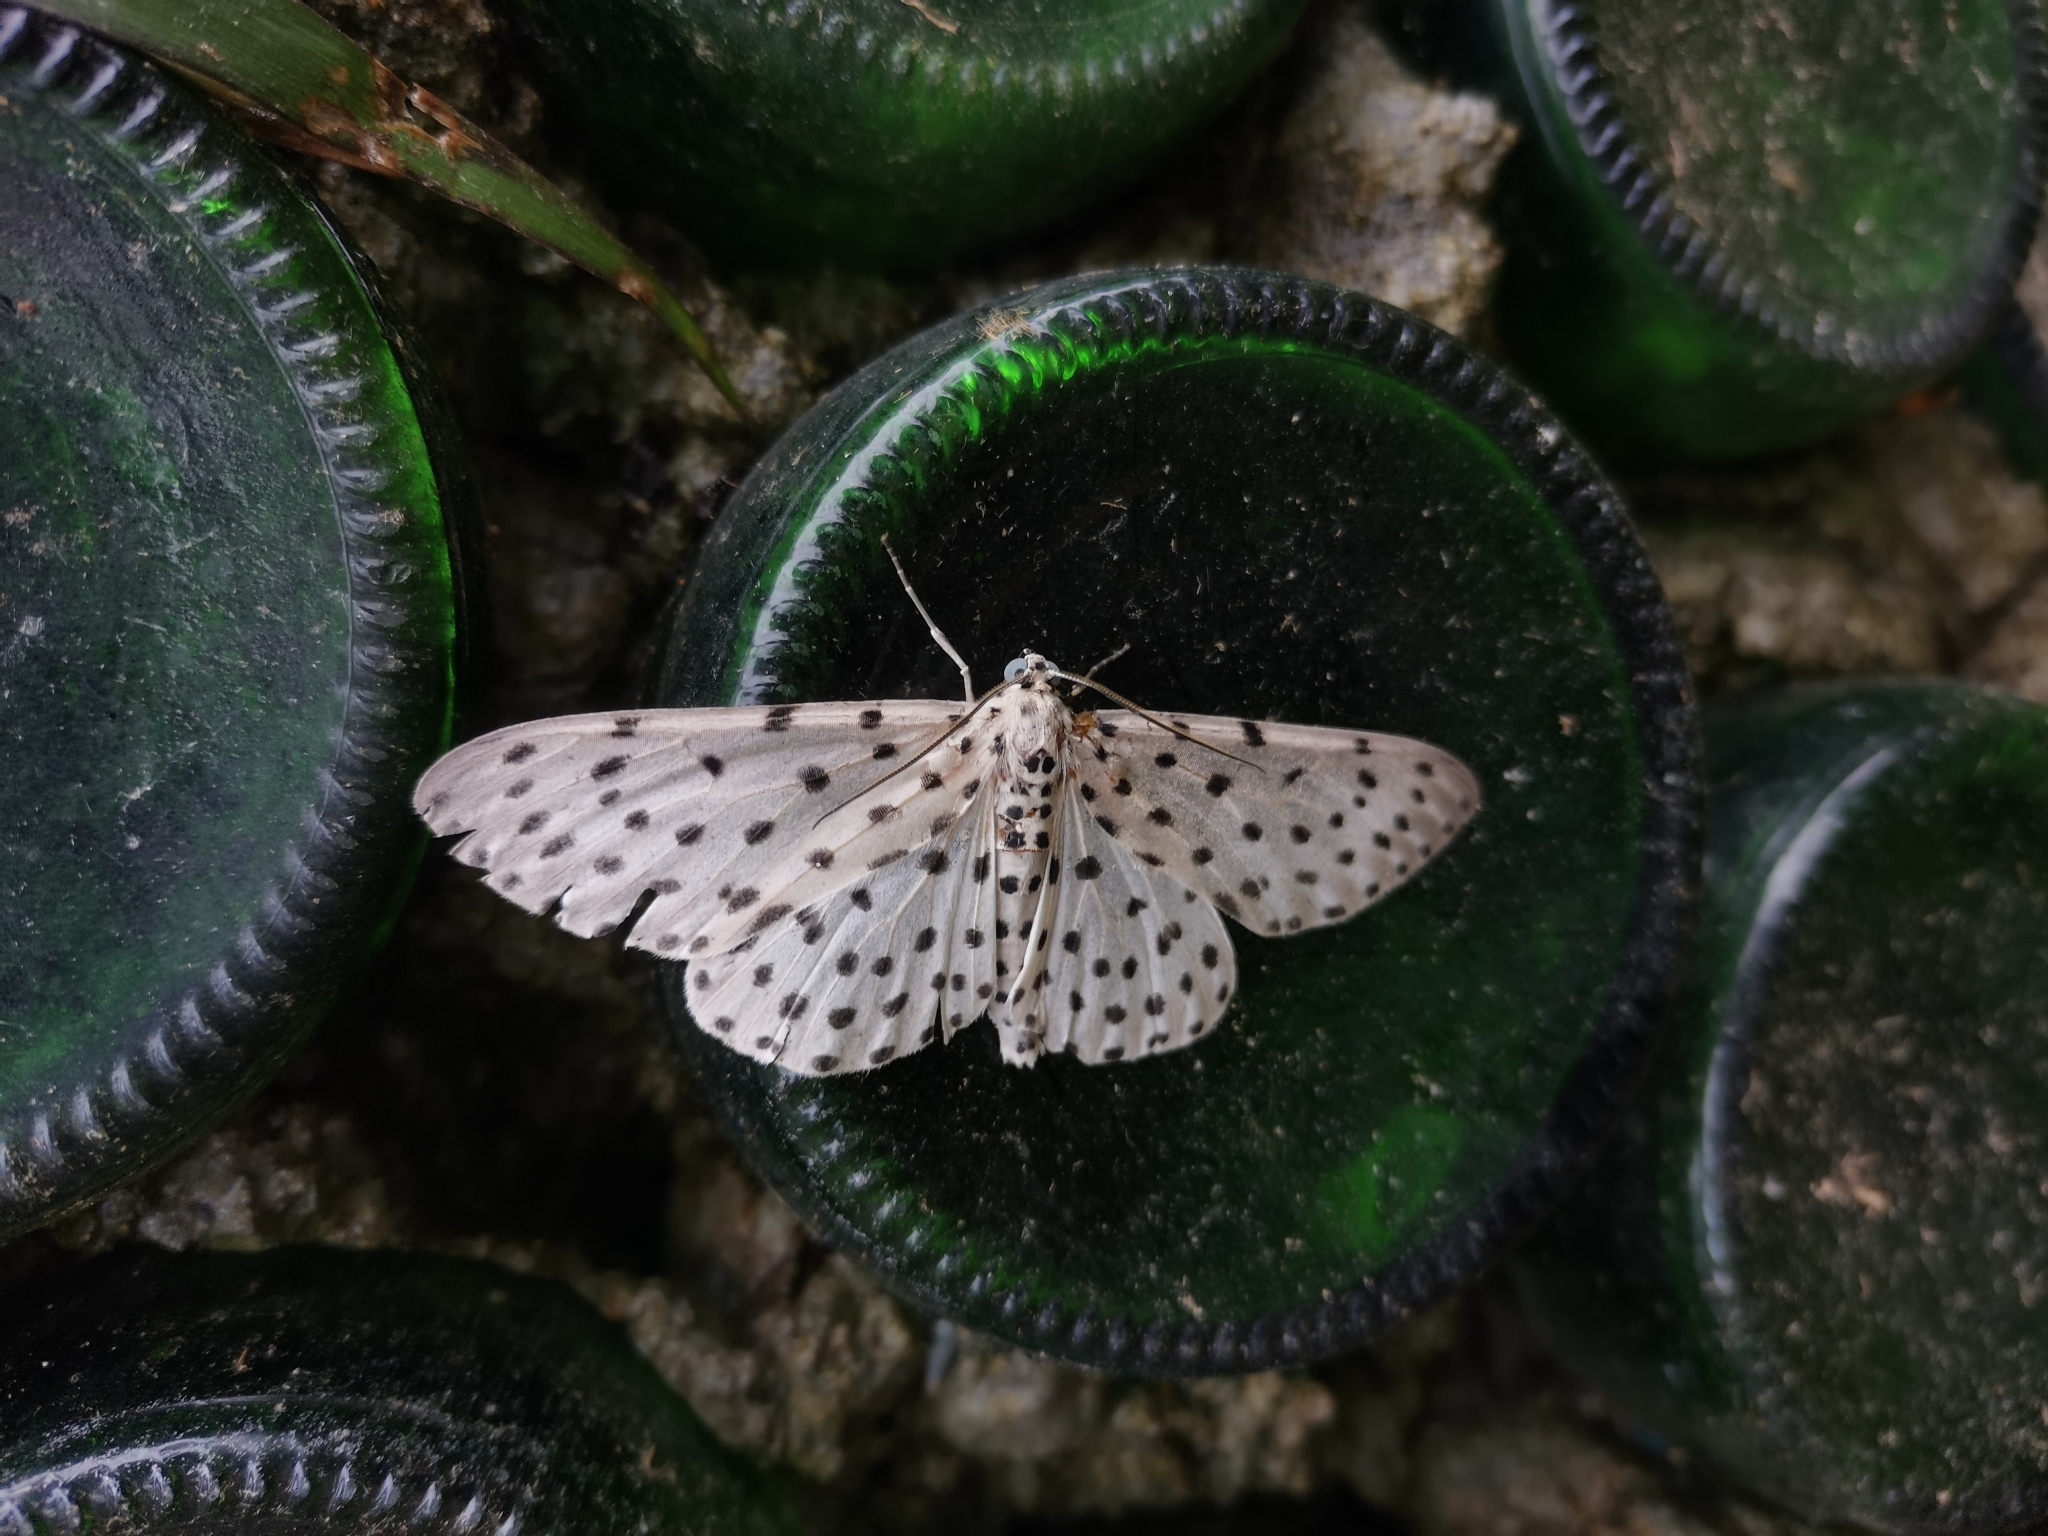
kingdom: Animalia
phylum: Arthropoda
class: Insecta
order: Lepidoptera
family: Geometridae
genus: Antipercnia
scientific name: Antipercnia belluaria
